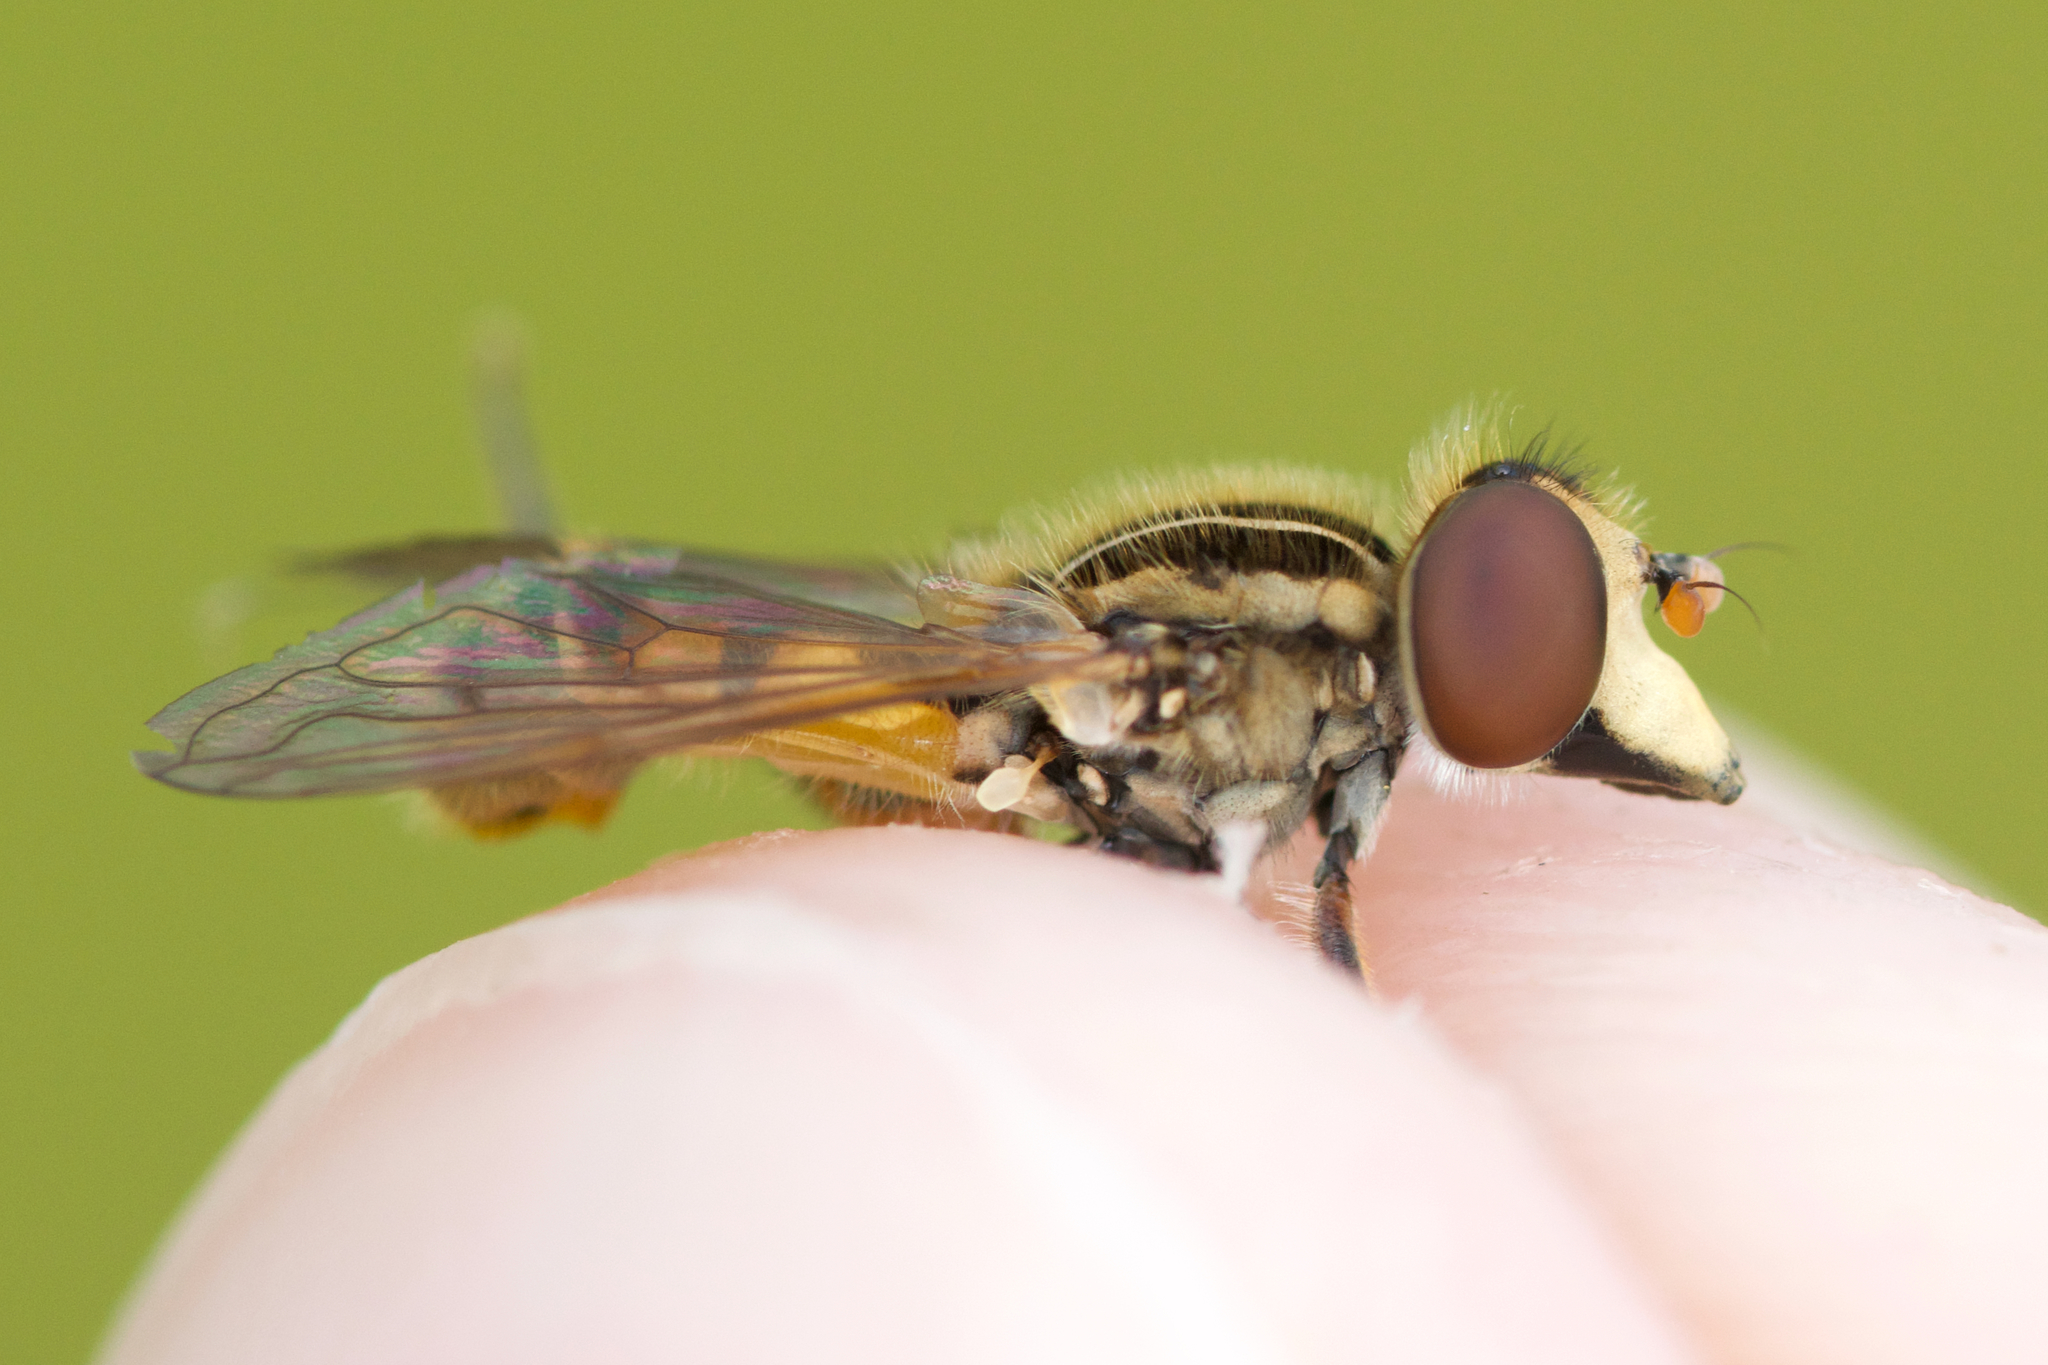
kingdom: Animalia
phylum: Arthropoda
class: Insecta
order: Diptera
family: Syrphidae
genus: Eurimyia
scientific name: Eurimyia stipatus
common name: Long-nosed swamp fly
